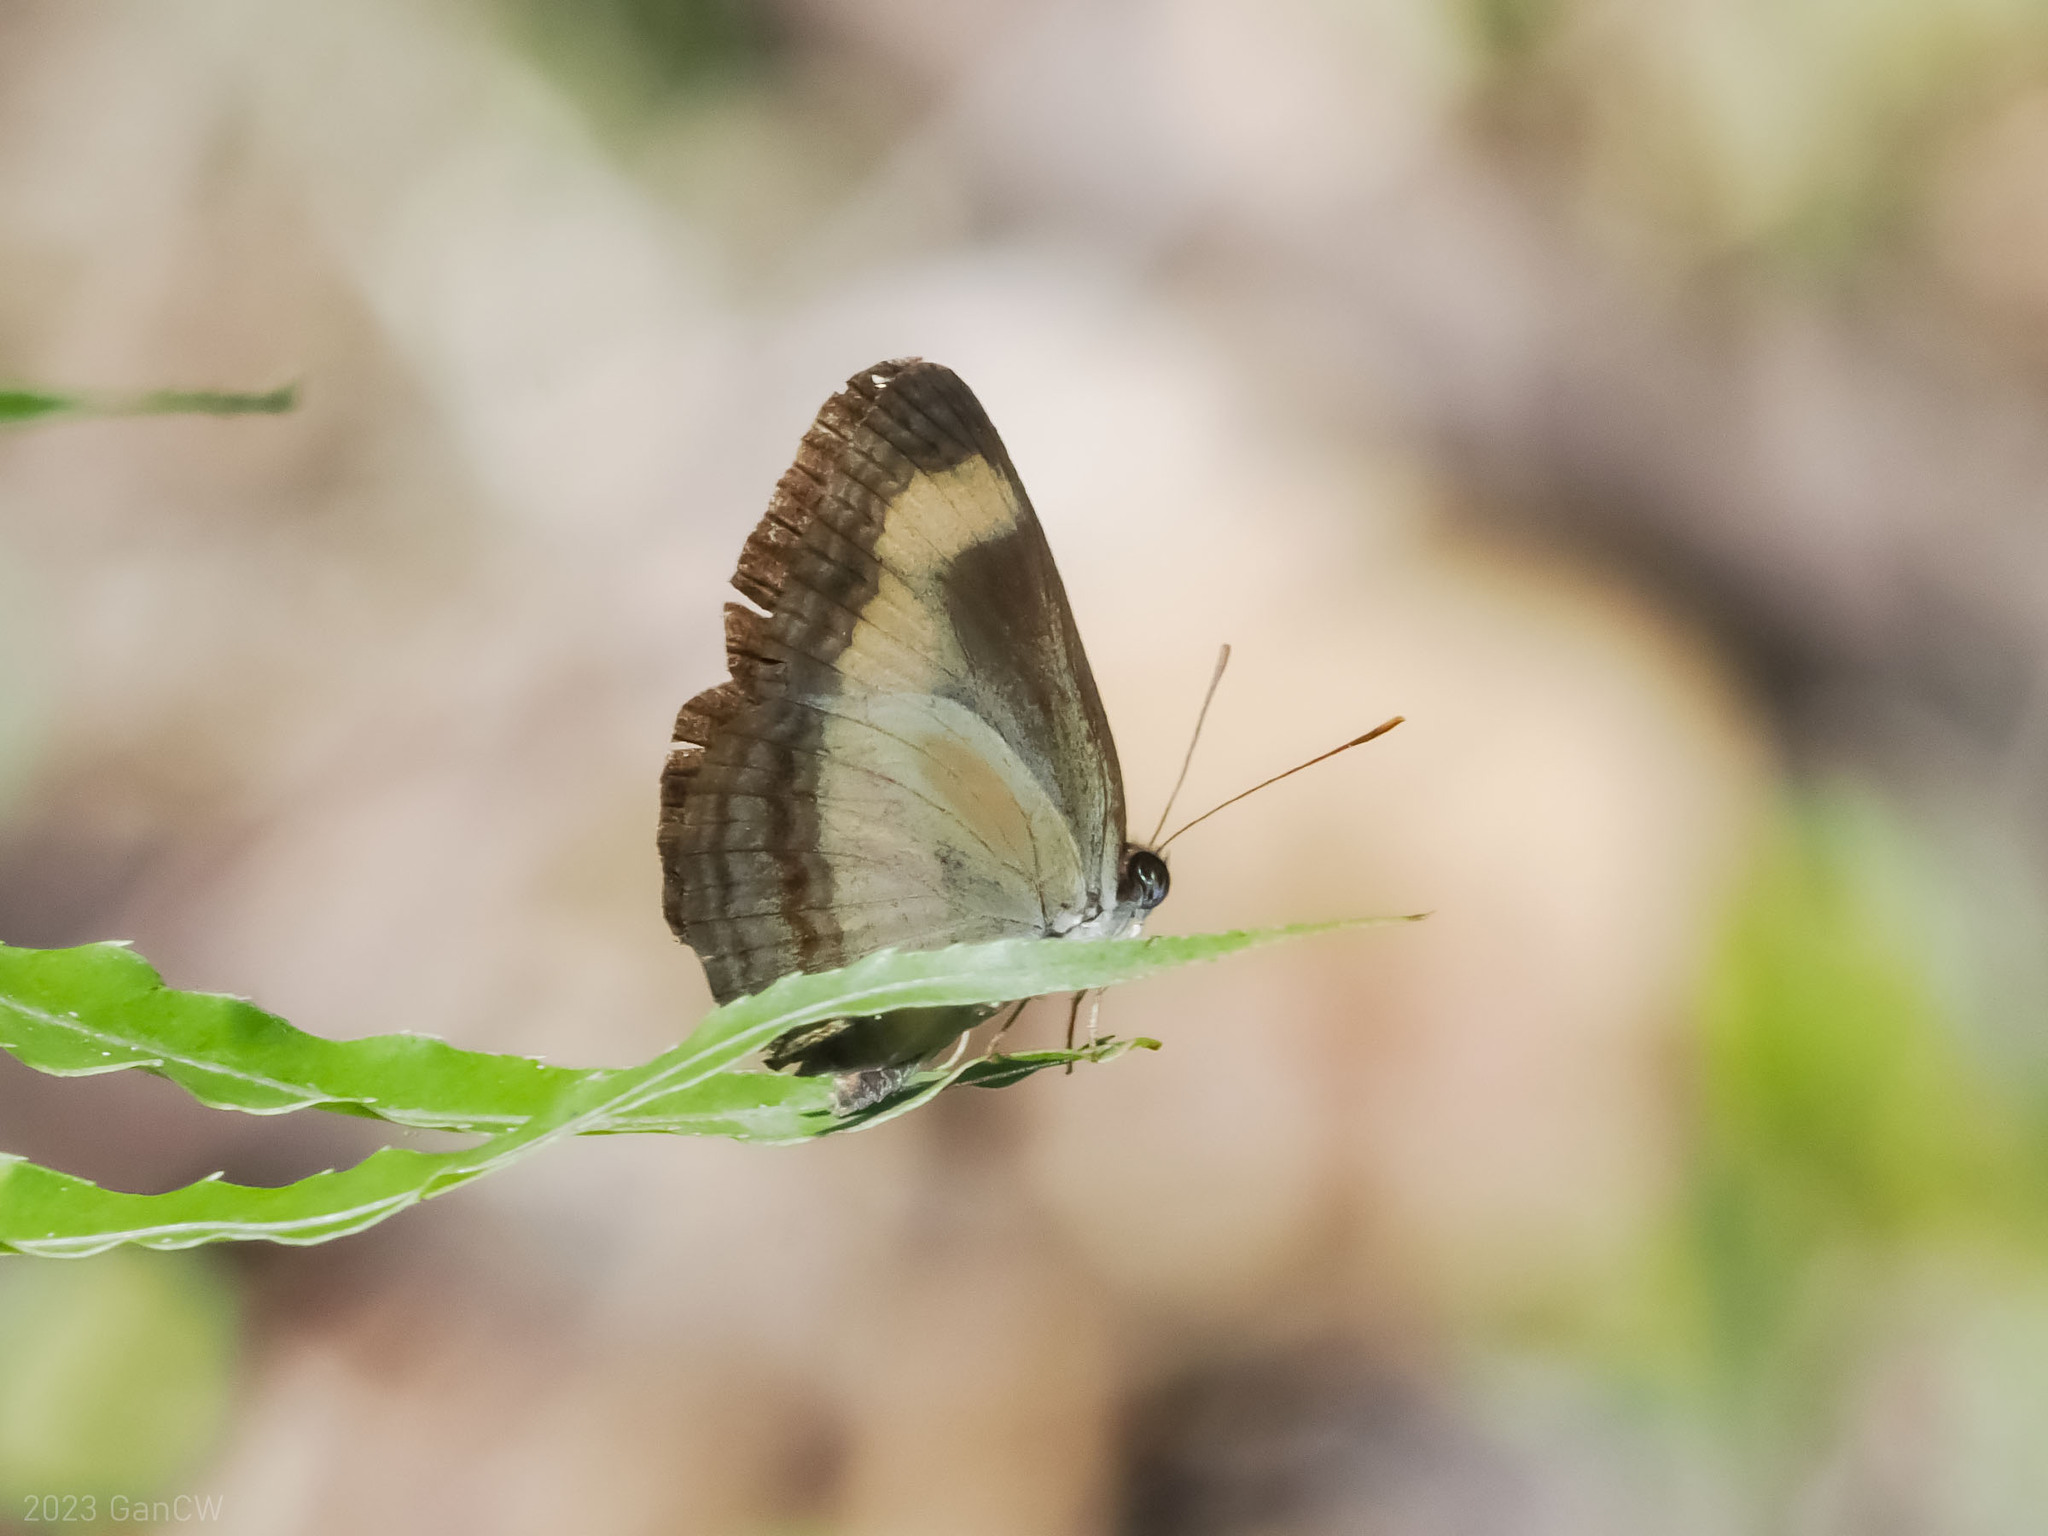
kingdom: Animalia
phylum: Arthropoda
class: Insecta
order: Lepidoptera
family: Nymphalidae
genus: Pantoporia
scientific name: Pantoporia consimilis
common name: Orange plane
